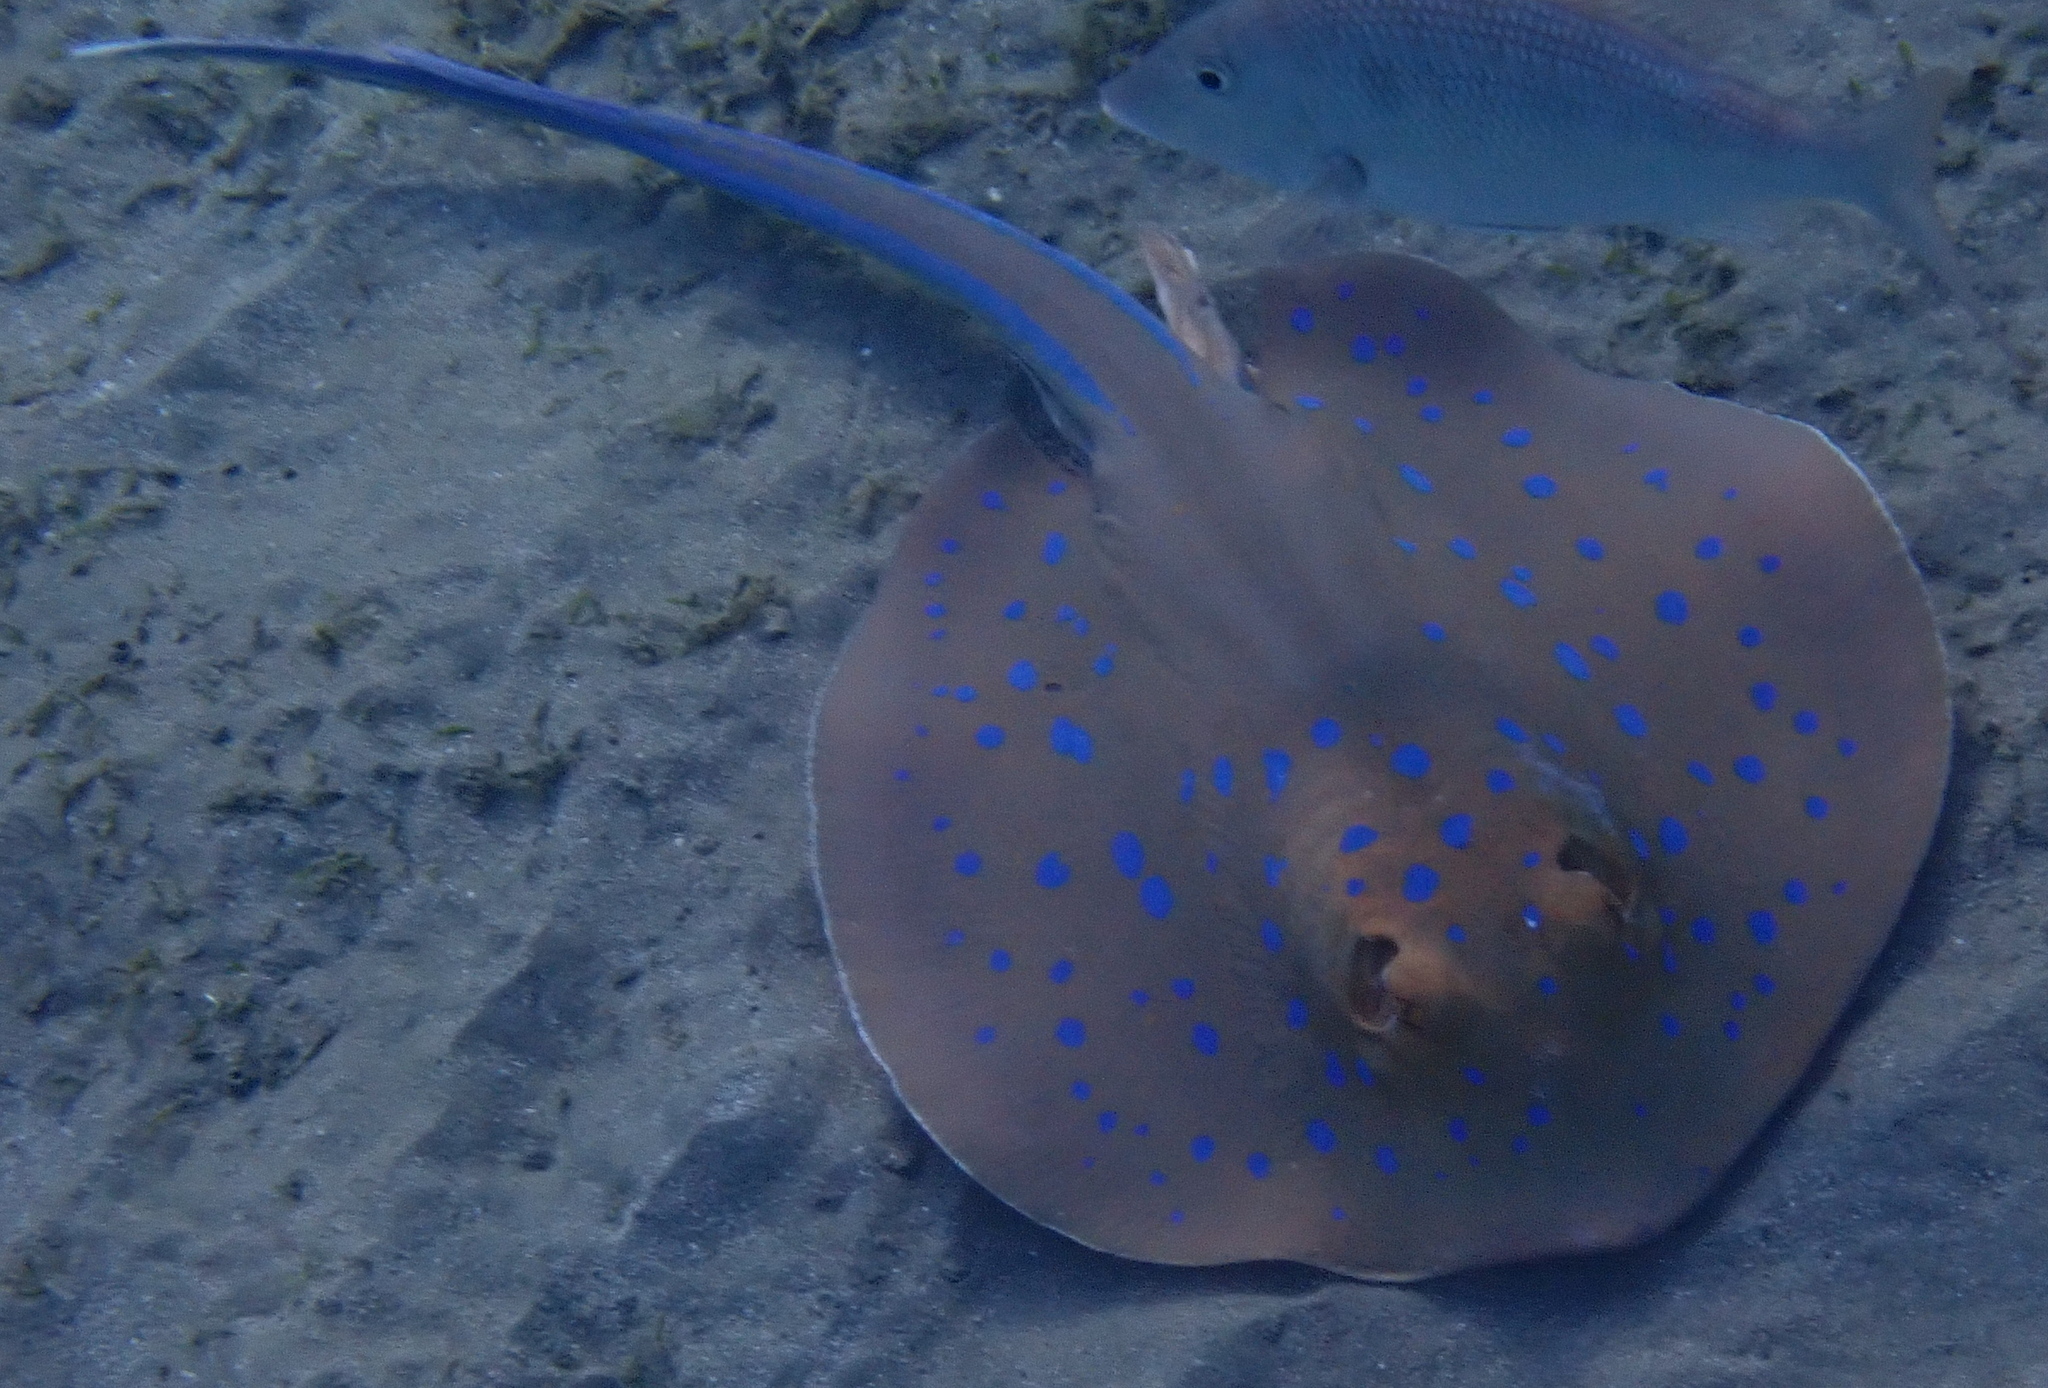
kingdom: Animalia
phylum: Chordata
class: Elasmobranchii
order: Myliobatiformes
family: Dasyatidae
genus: Taeniura
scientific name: Taeniura lymma
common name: Bluespotted ribbontail ray
